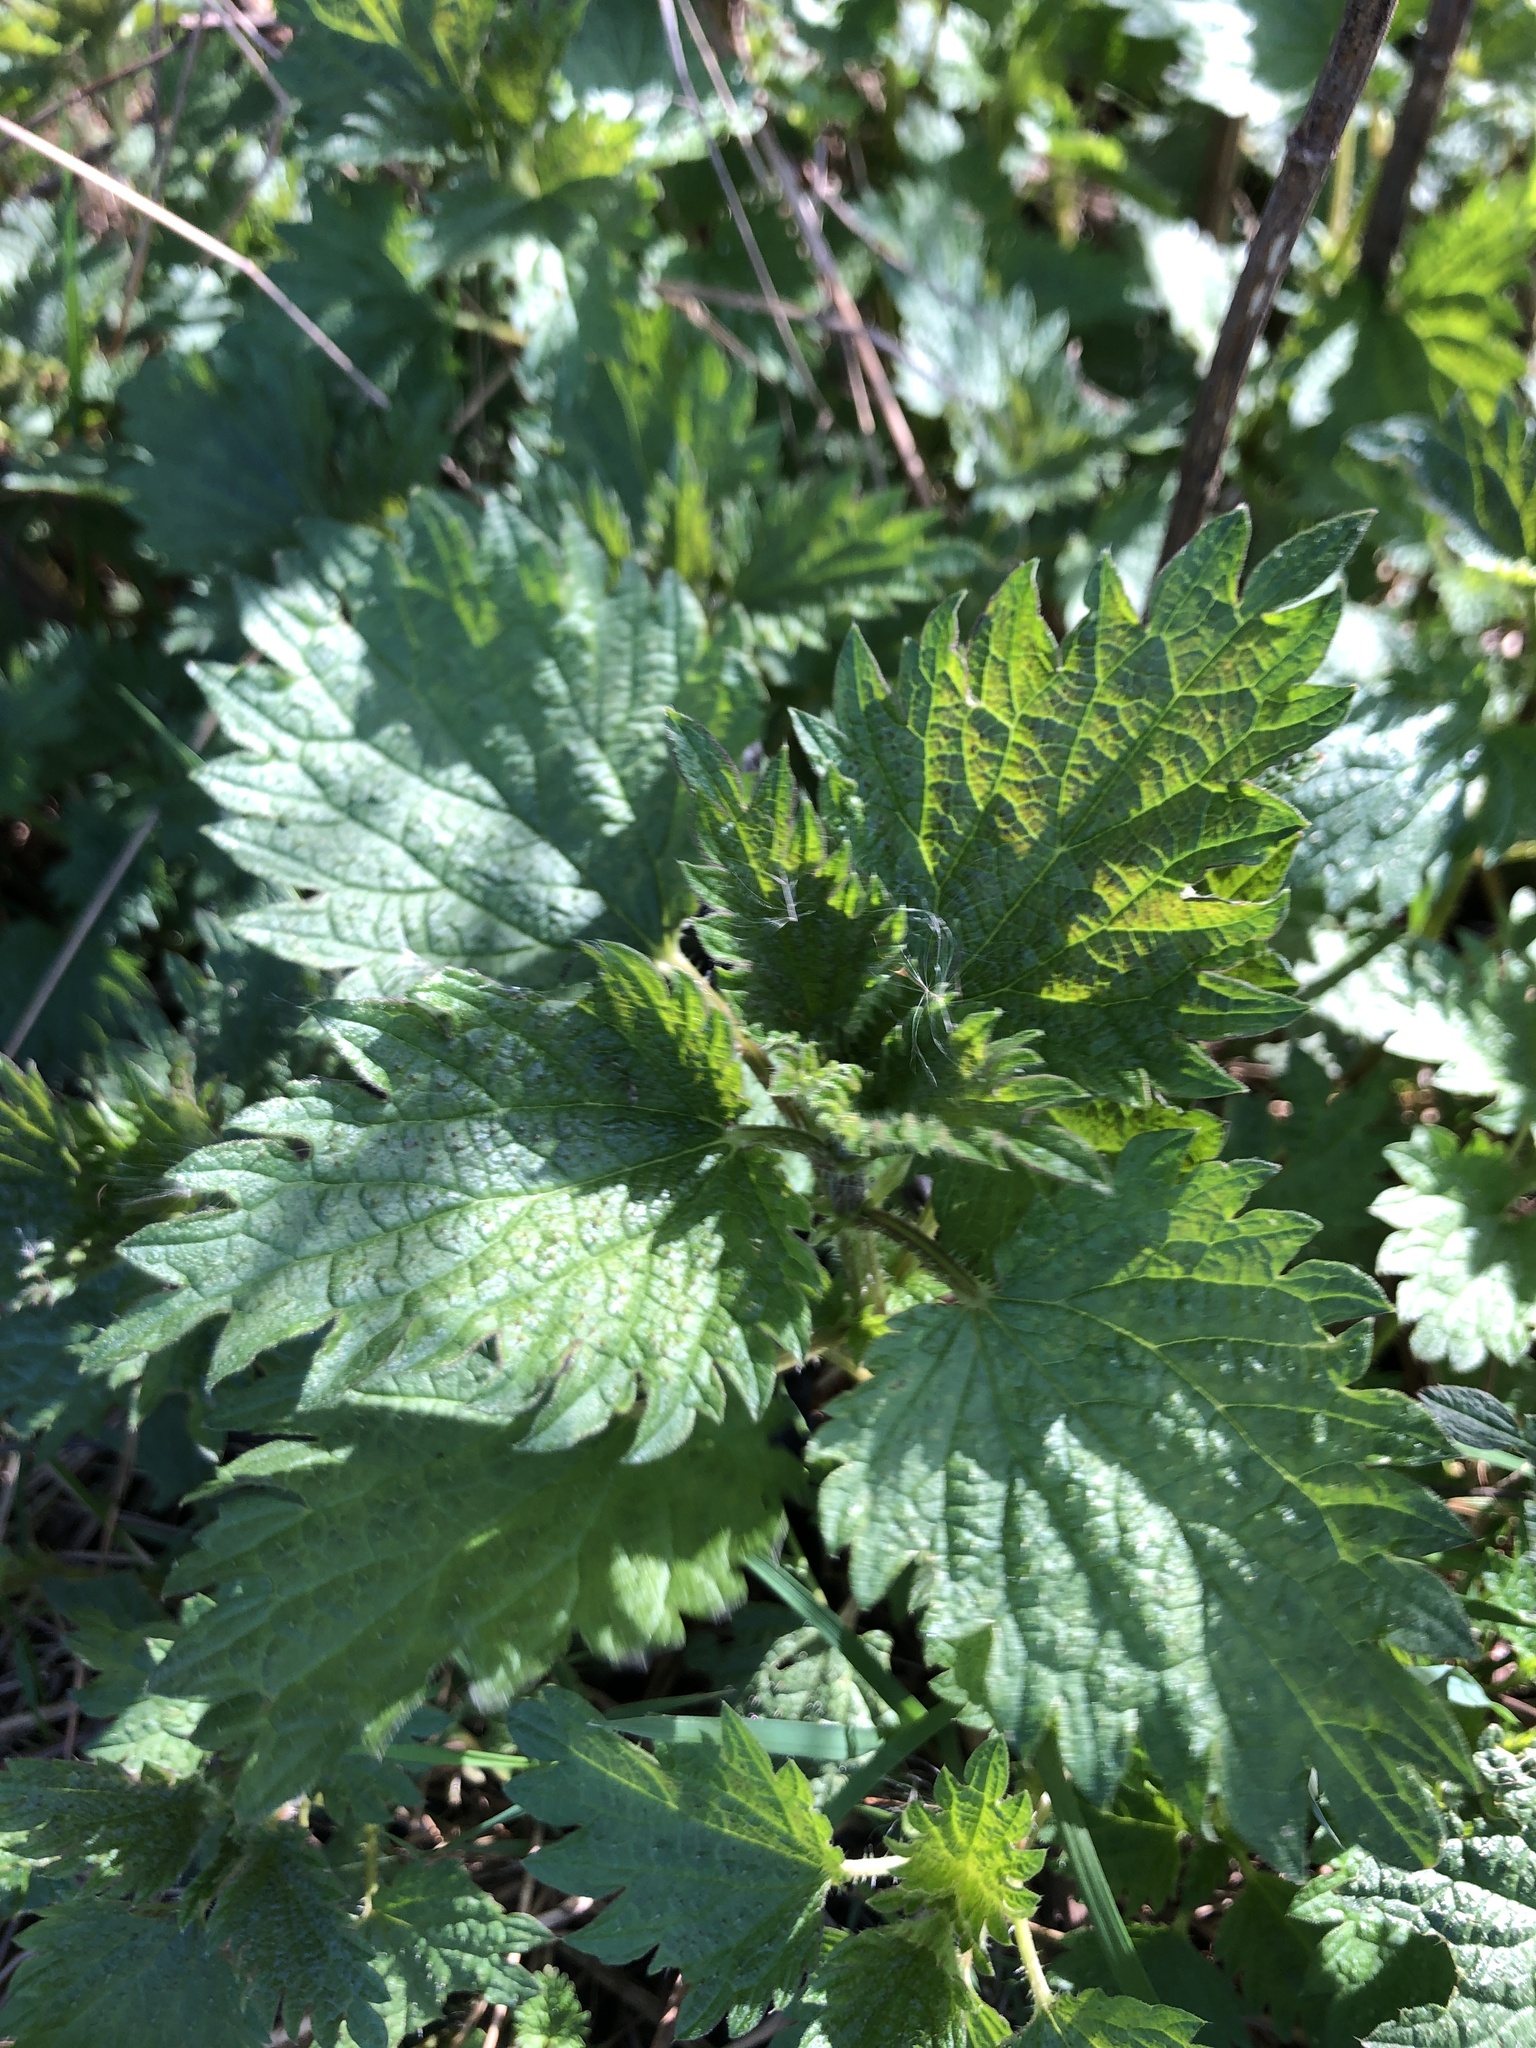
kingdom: Plantae
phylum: Tracheophyta
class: Magnoliopsida
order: Rosales
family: Urticaceae
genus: Urtica
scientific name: Urtica dioica
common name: Common nettle
